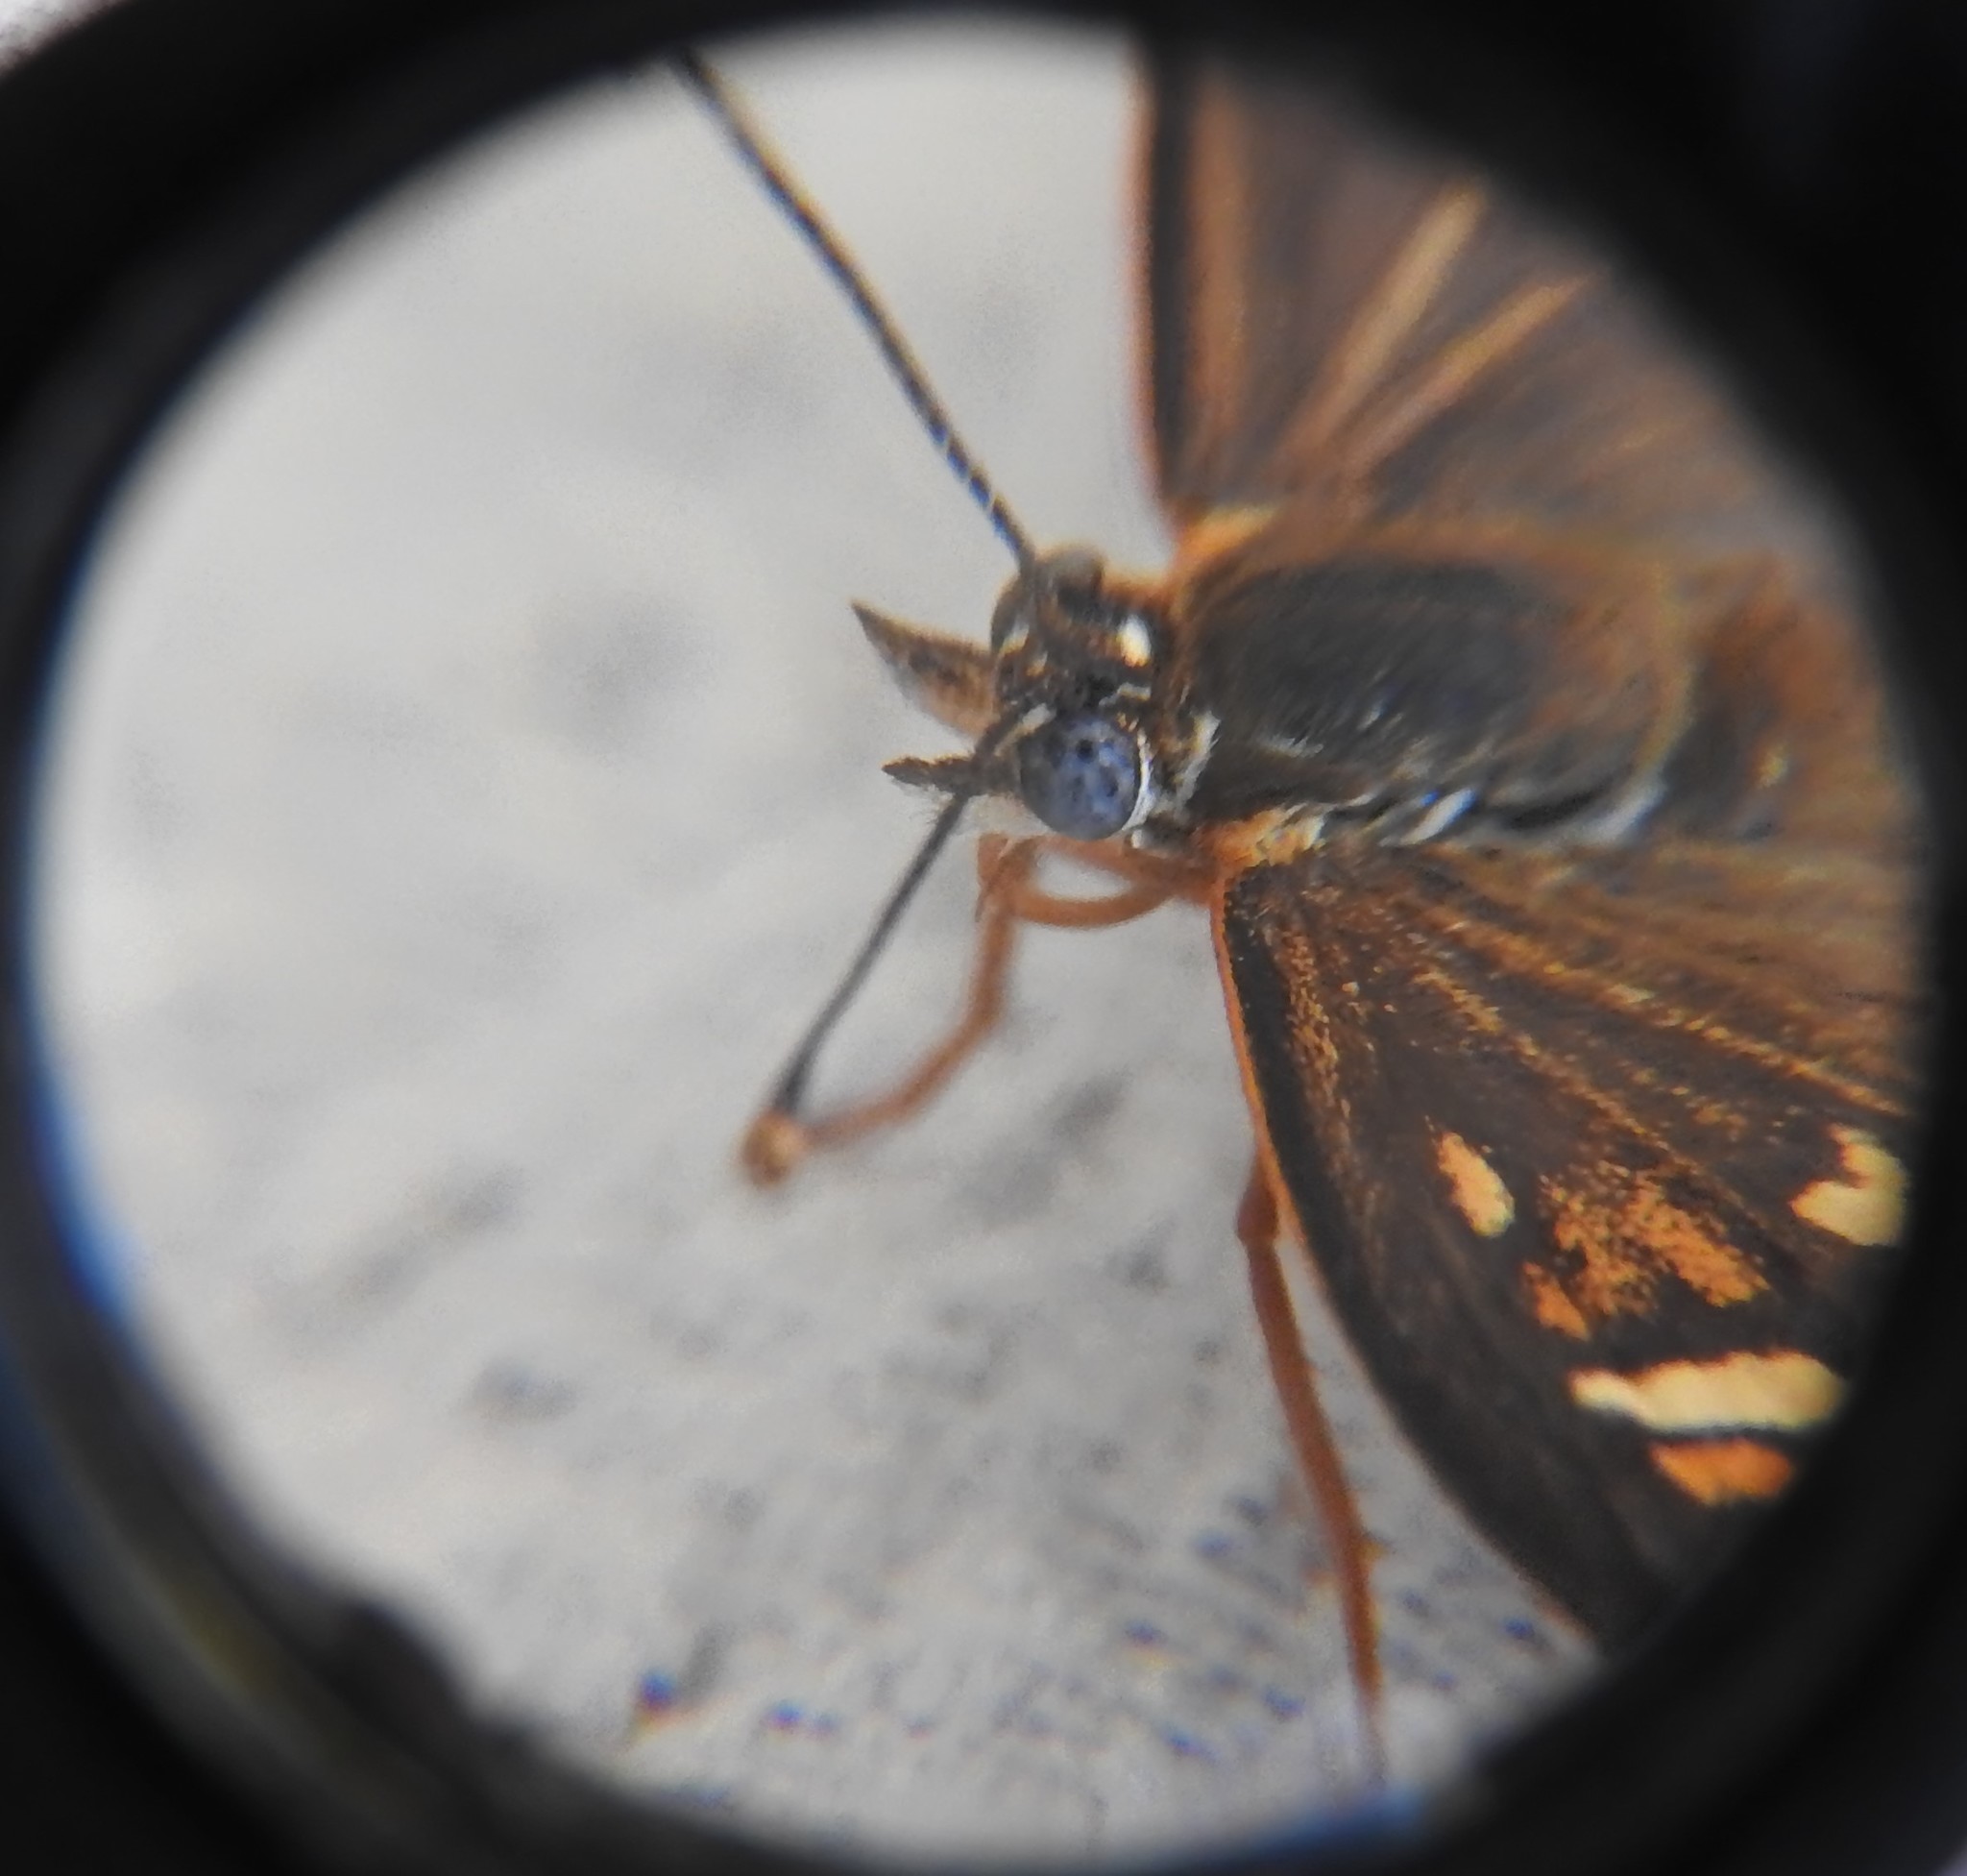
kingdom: Animalia
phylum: Arthropoda
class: Insecta
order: Lepidoptera
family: Nymphalidae
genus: Thessalia
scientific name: Thessalia theona
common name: Nymphalid moth
